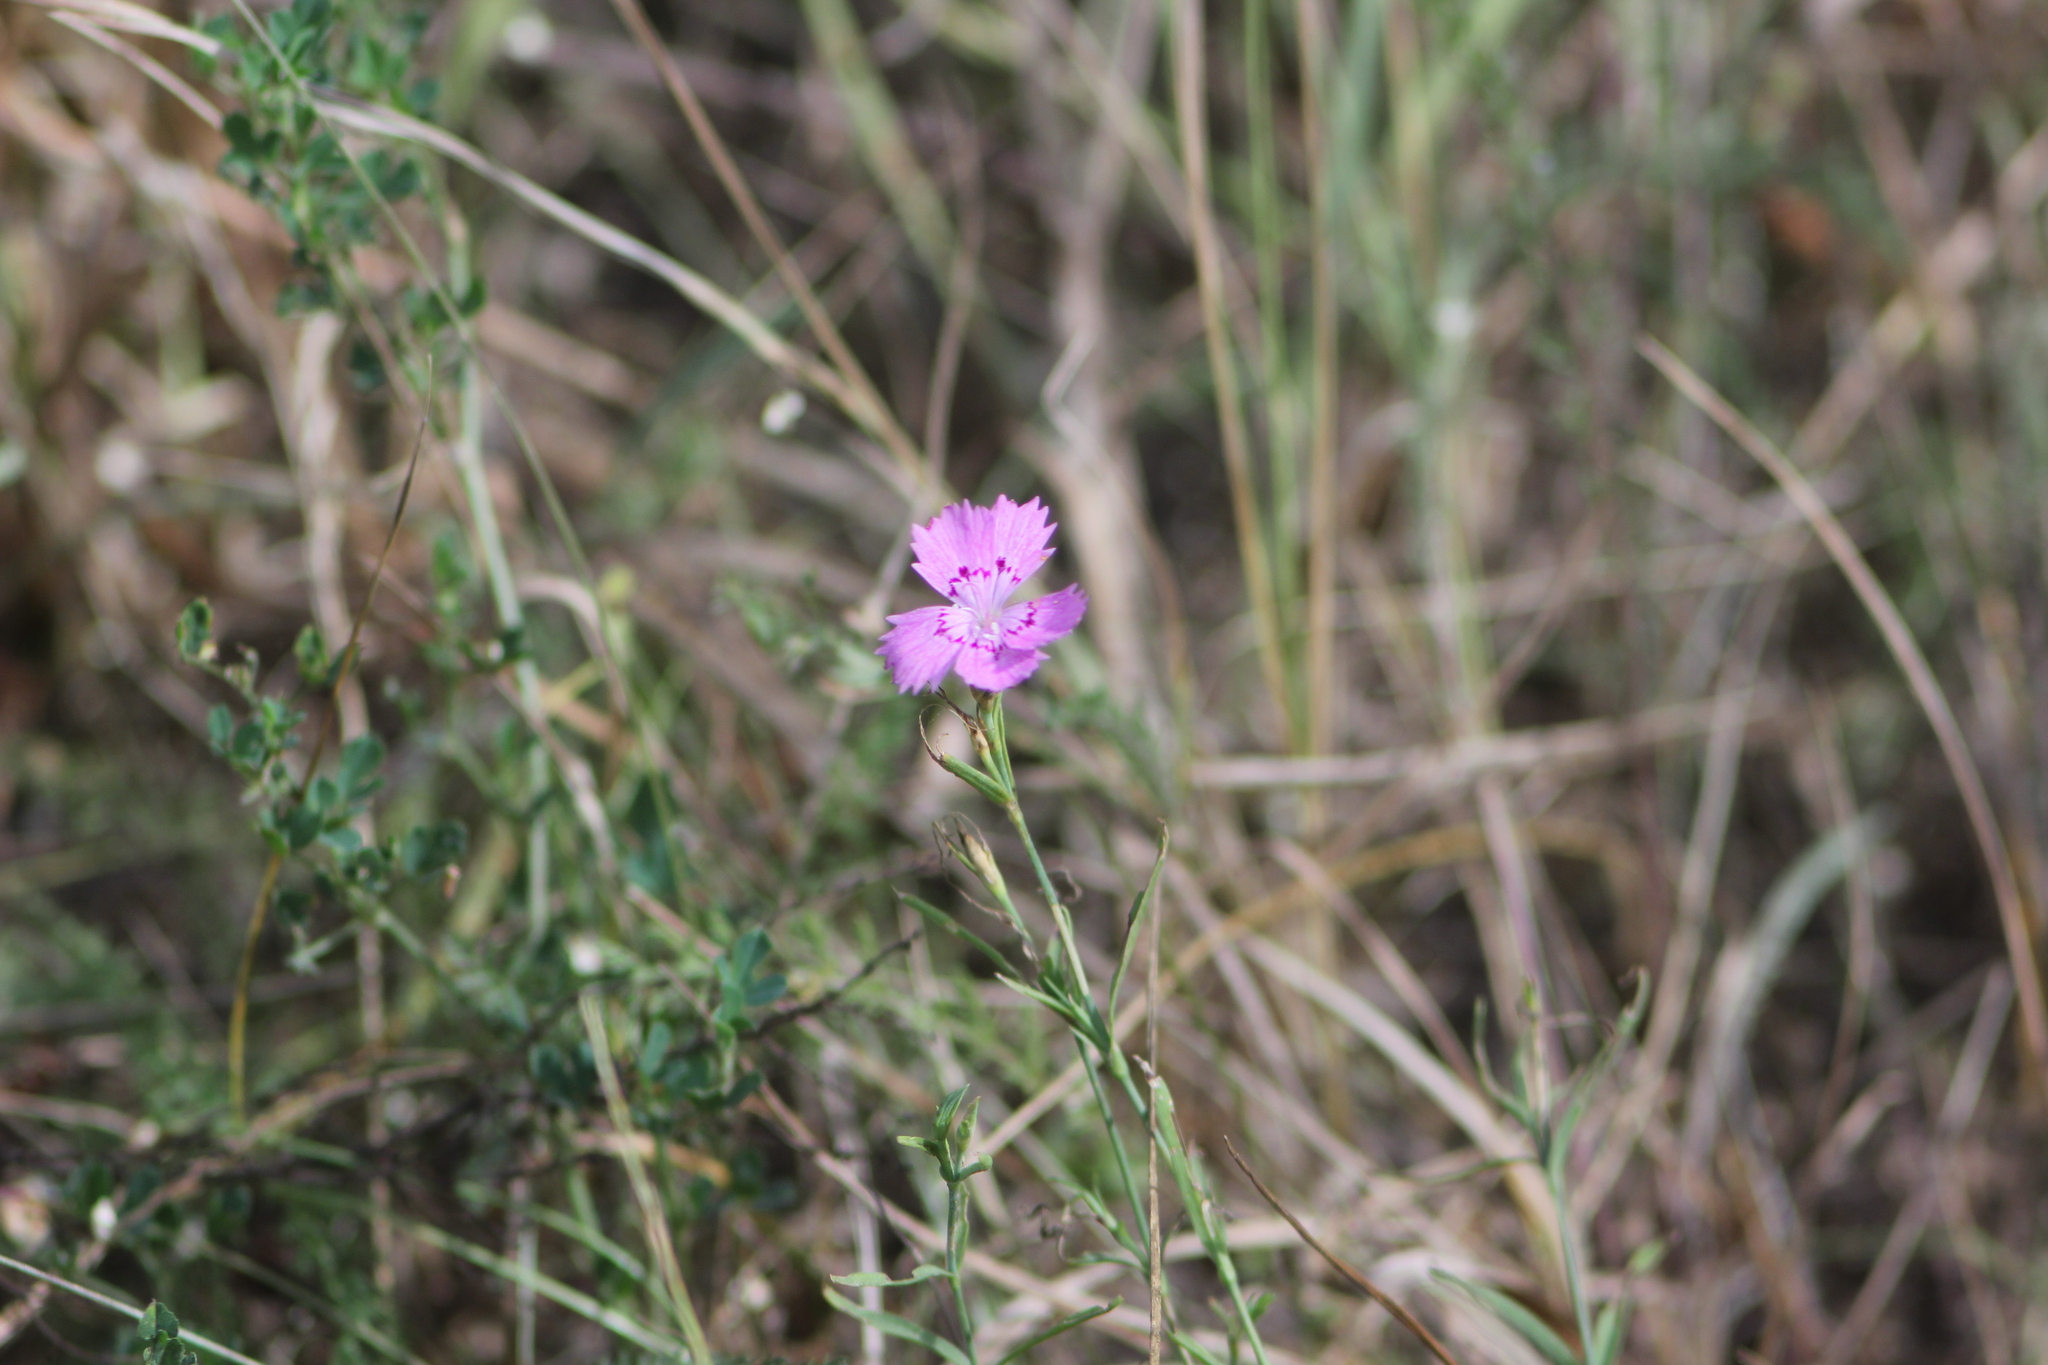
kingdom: Plantae
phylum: Tracheophyta
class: Magnoliopsida
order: Caryophyllales
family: Caryophyllaceae
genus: Dianthus
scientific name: Dianthus chinensis
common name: Rainbow pink
